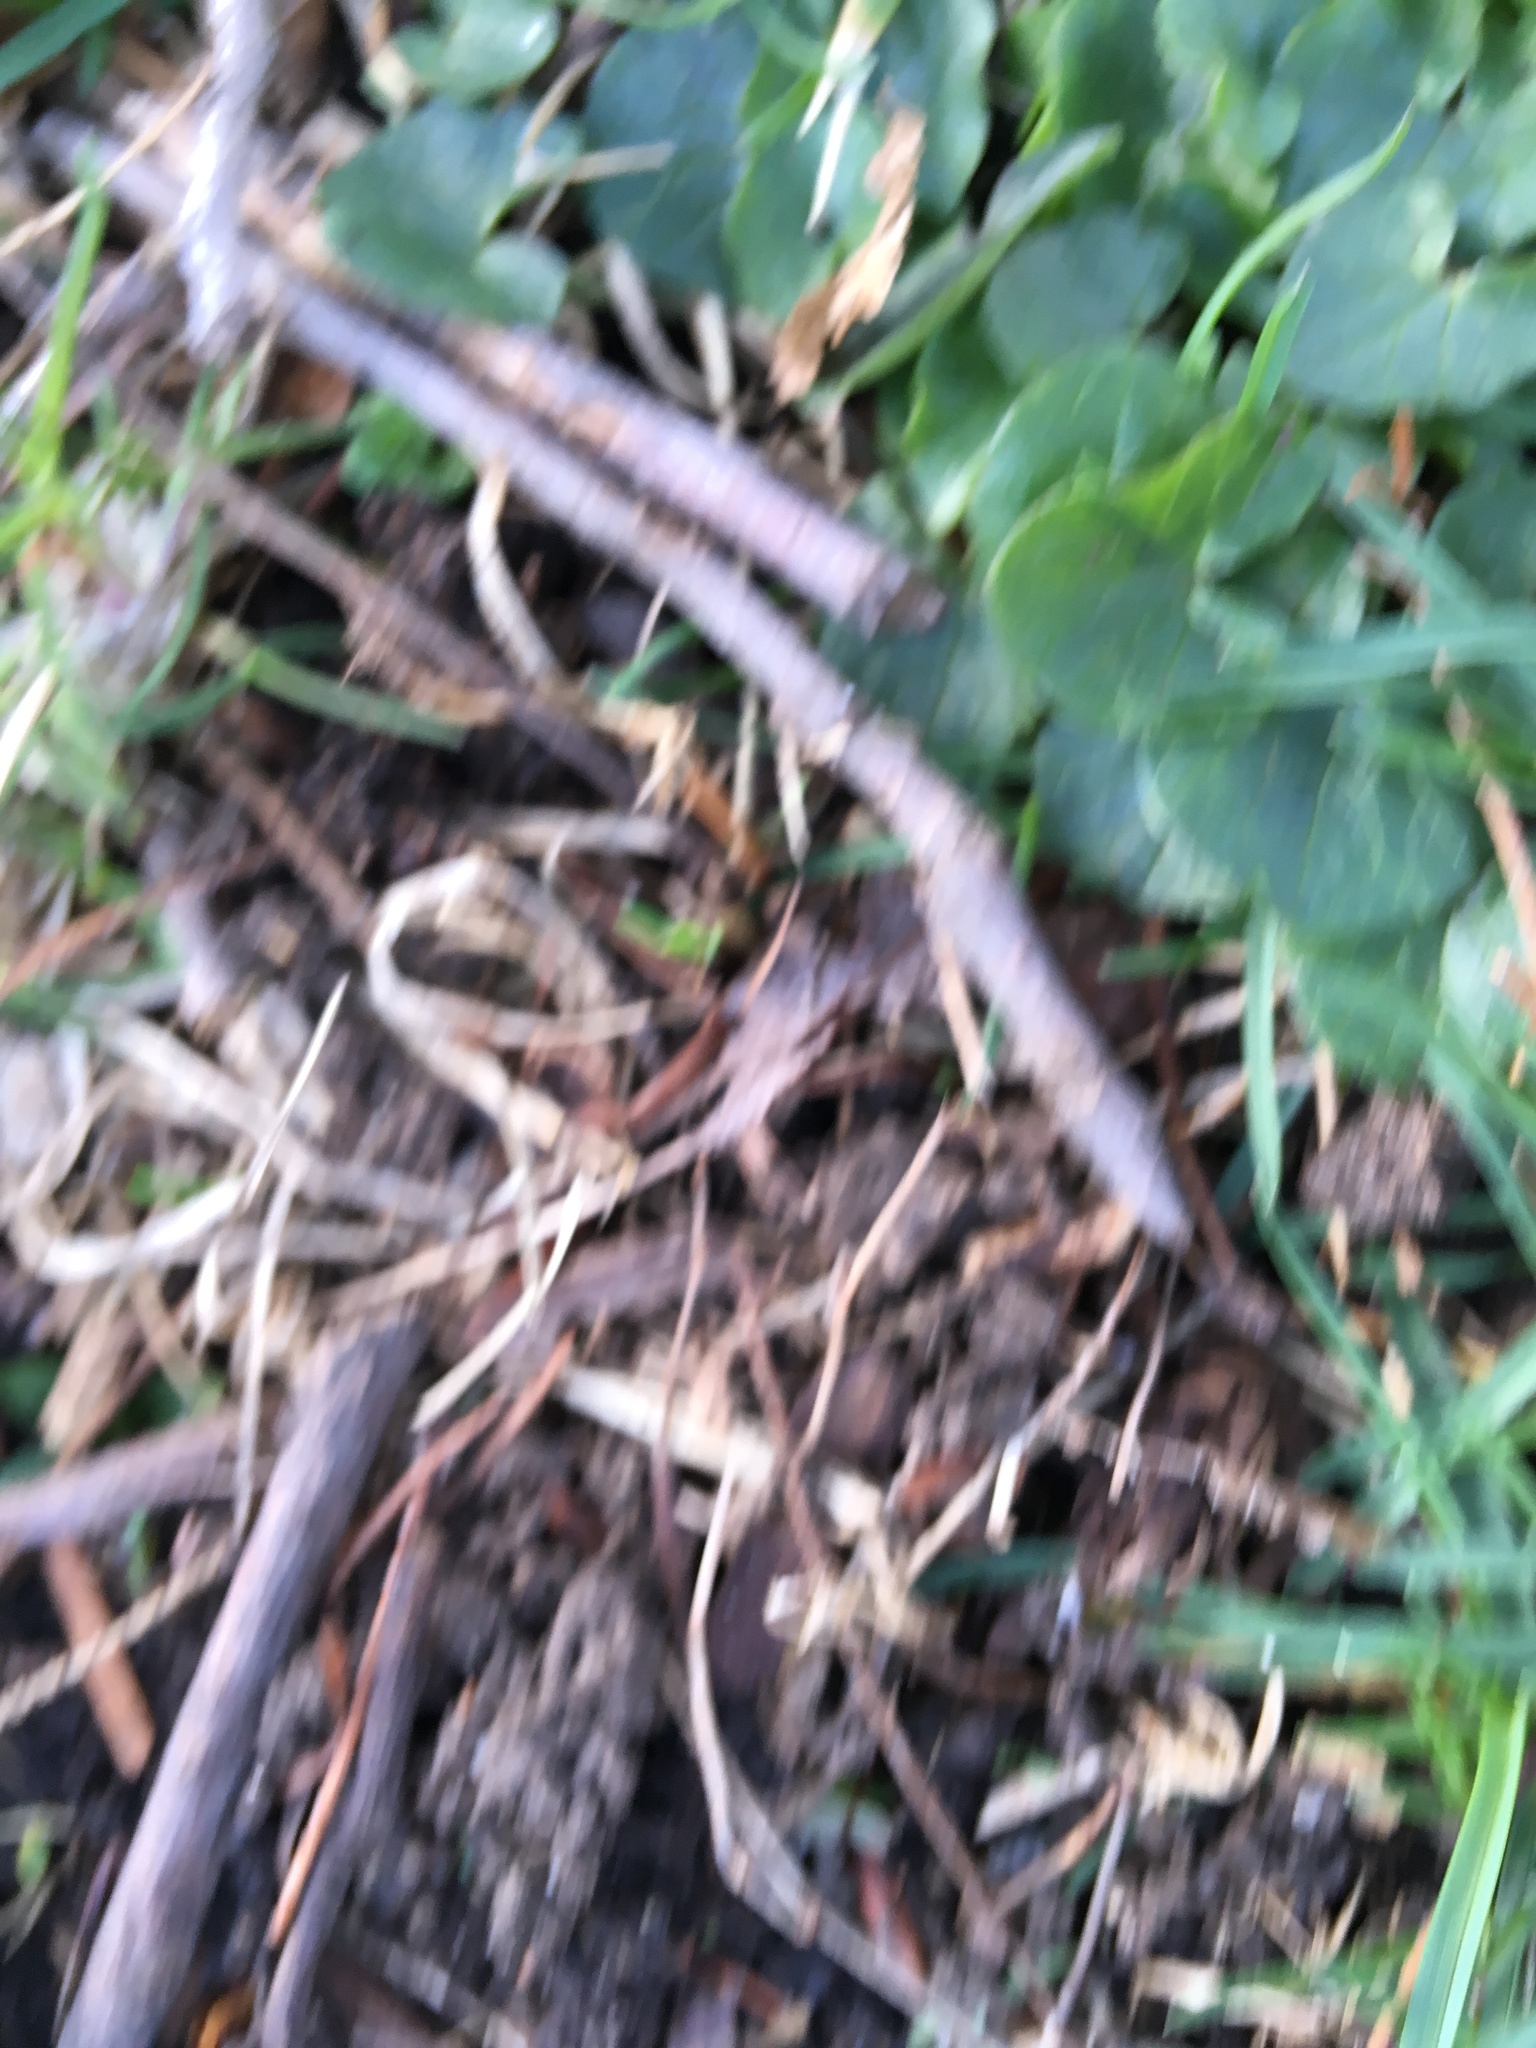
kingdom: Plantae
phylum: Tracheophyta
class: Magnoliopsida
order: Ranunculales
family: Ranunculaceae
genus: Ficaria
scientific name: Ficaria verna
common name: Lesser celandine
